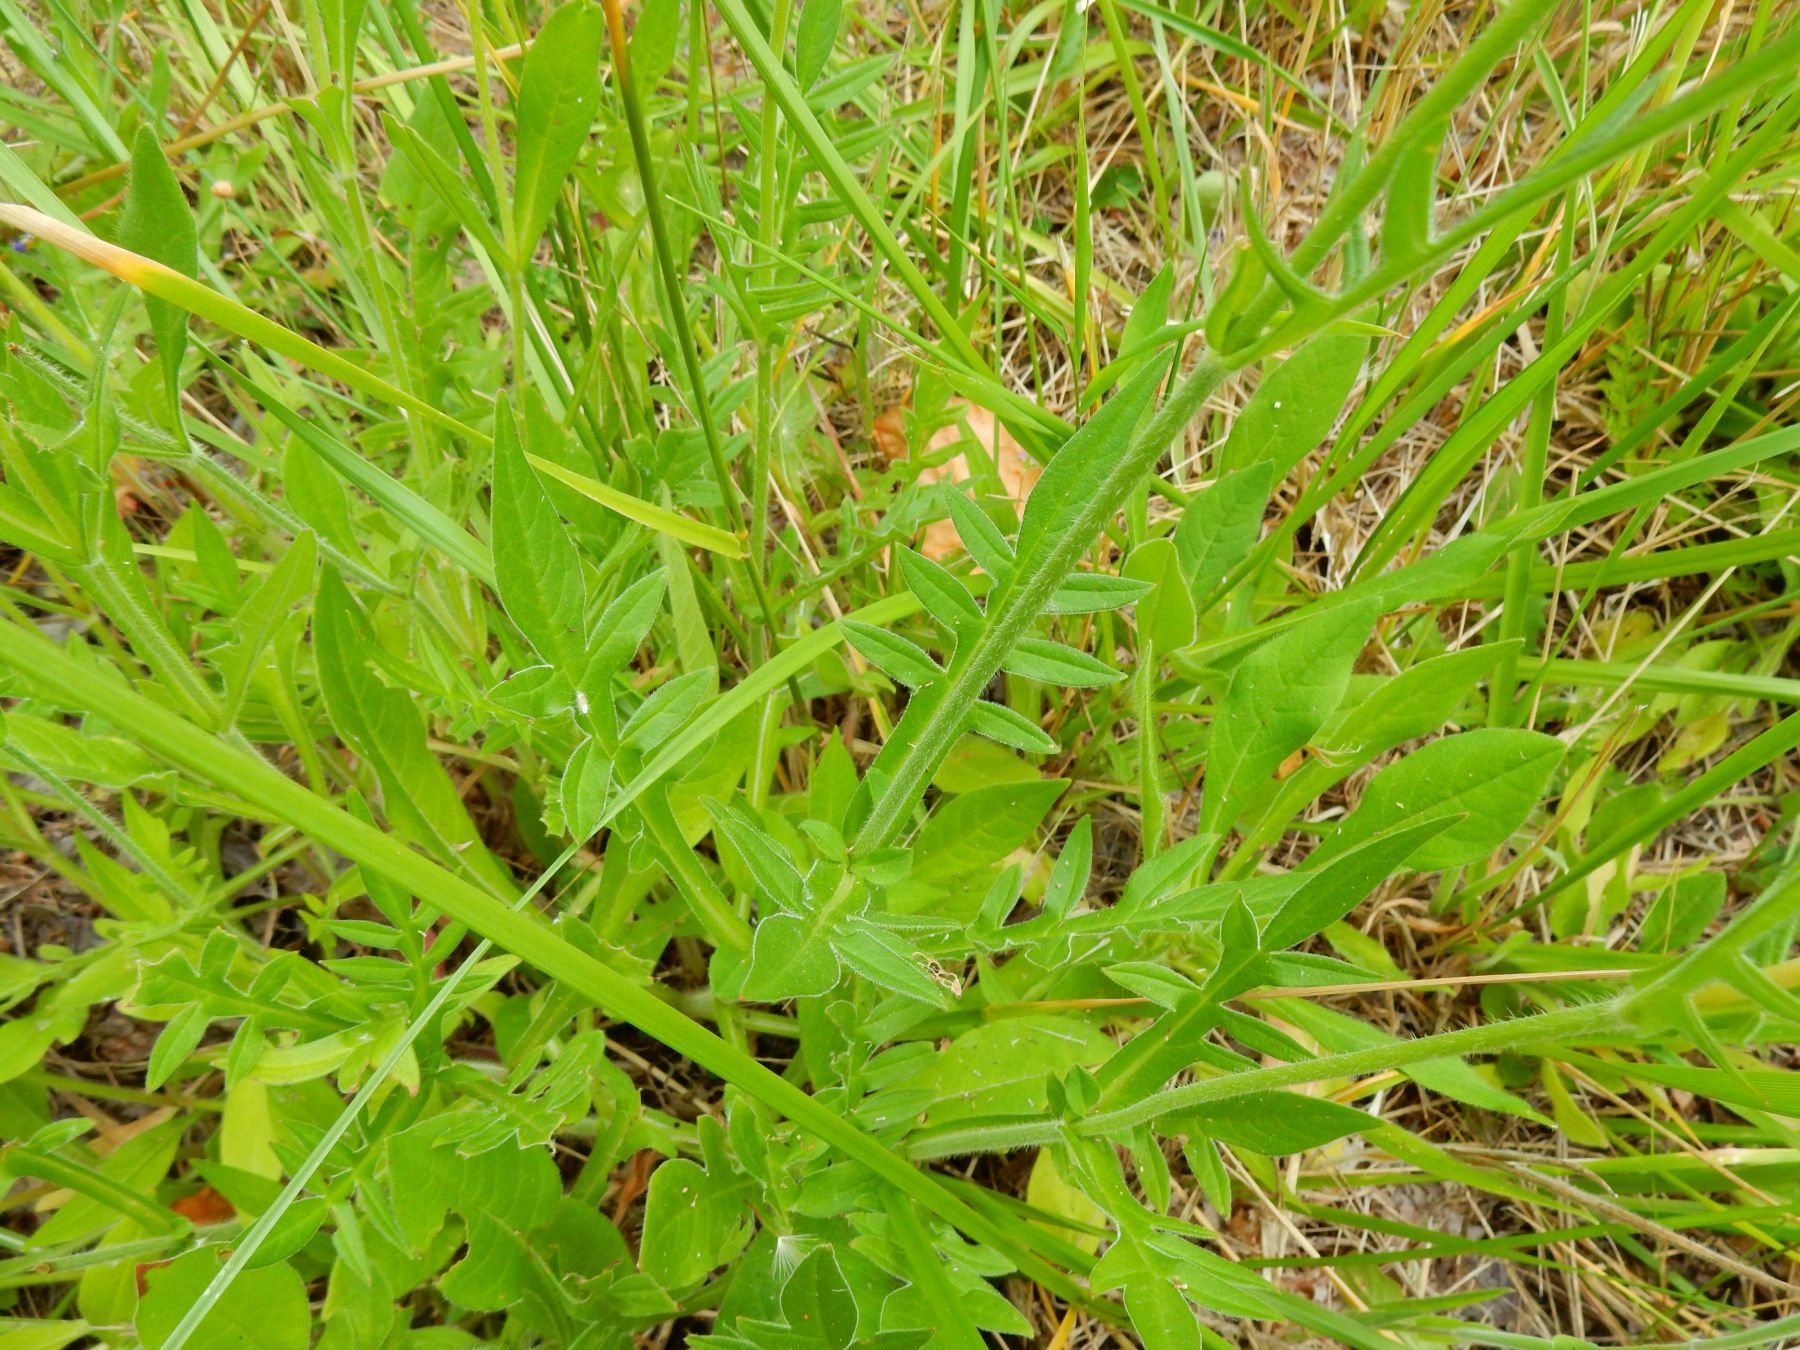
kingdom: Plantae
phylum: Tracheophyta
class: Magnoliopsida
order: Dipsacales
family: Caprifoliaceae
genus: Knautia
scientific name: Knautia arvensis
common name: Field scabiosa
